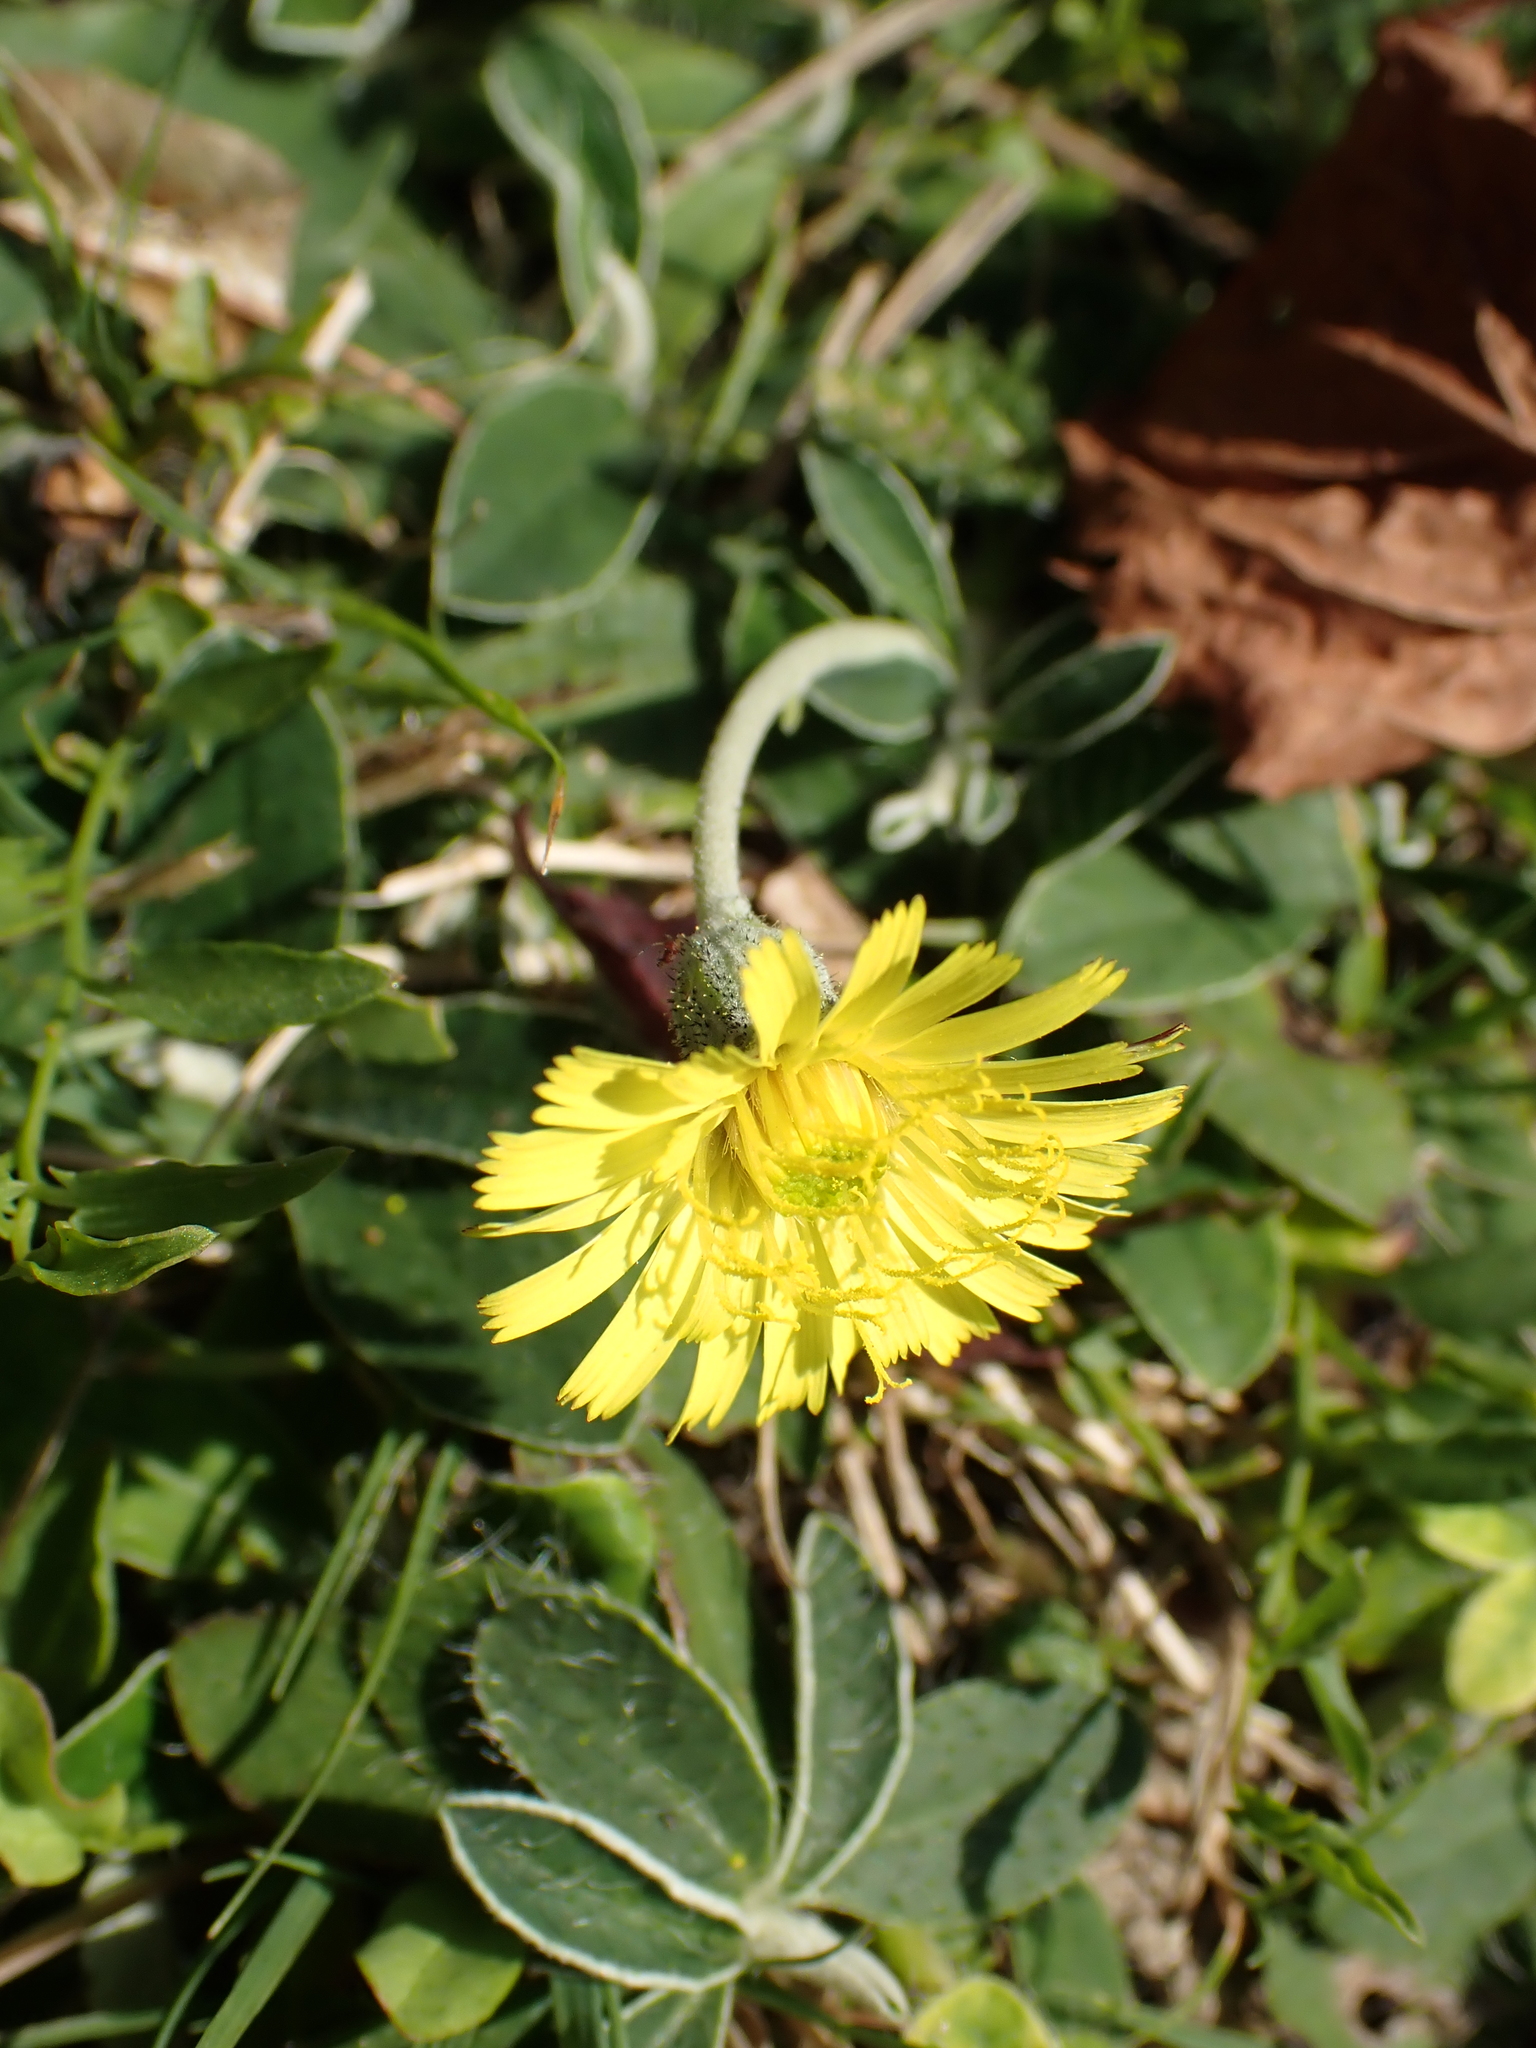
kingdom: Plantae
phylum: Tracheophyta
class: Magnoliopsida
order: Asterales
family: Asteraceae
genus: Pilosella
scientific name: Pilosella officinarum
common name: Mouse-ear hawkweed
